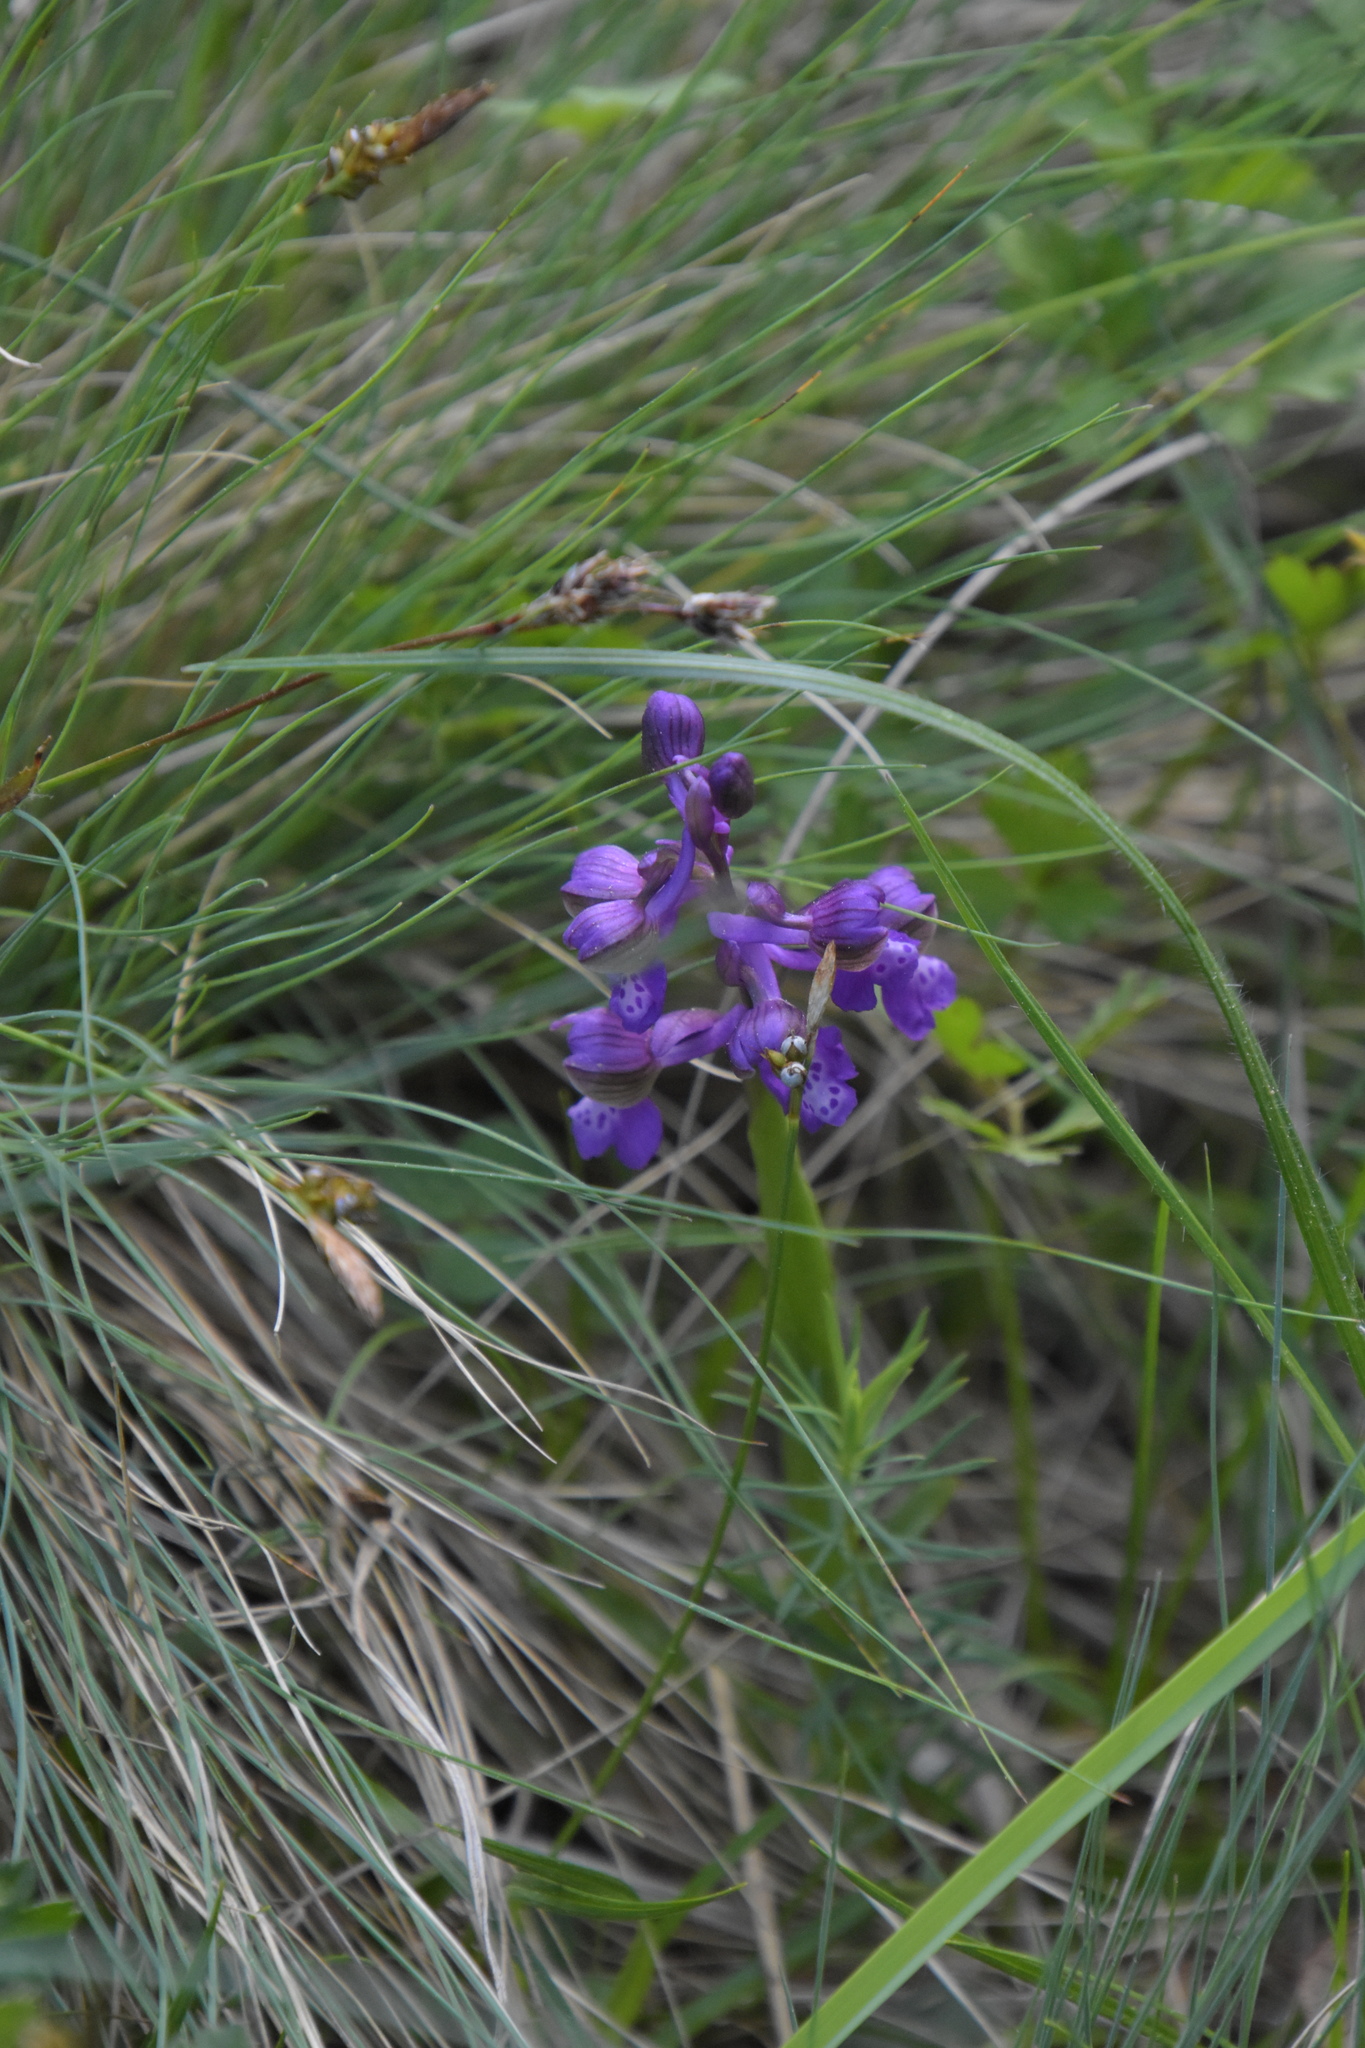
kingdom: Plantae
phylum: Tracheophyta
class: Liliopsida
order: Asparagales
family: Orchidaceae
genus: Anacamptis
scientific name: Anacamptis morio
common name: Green-winged orchid
